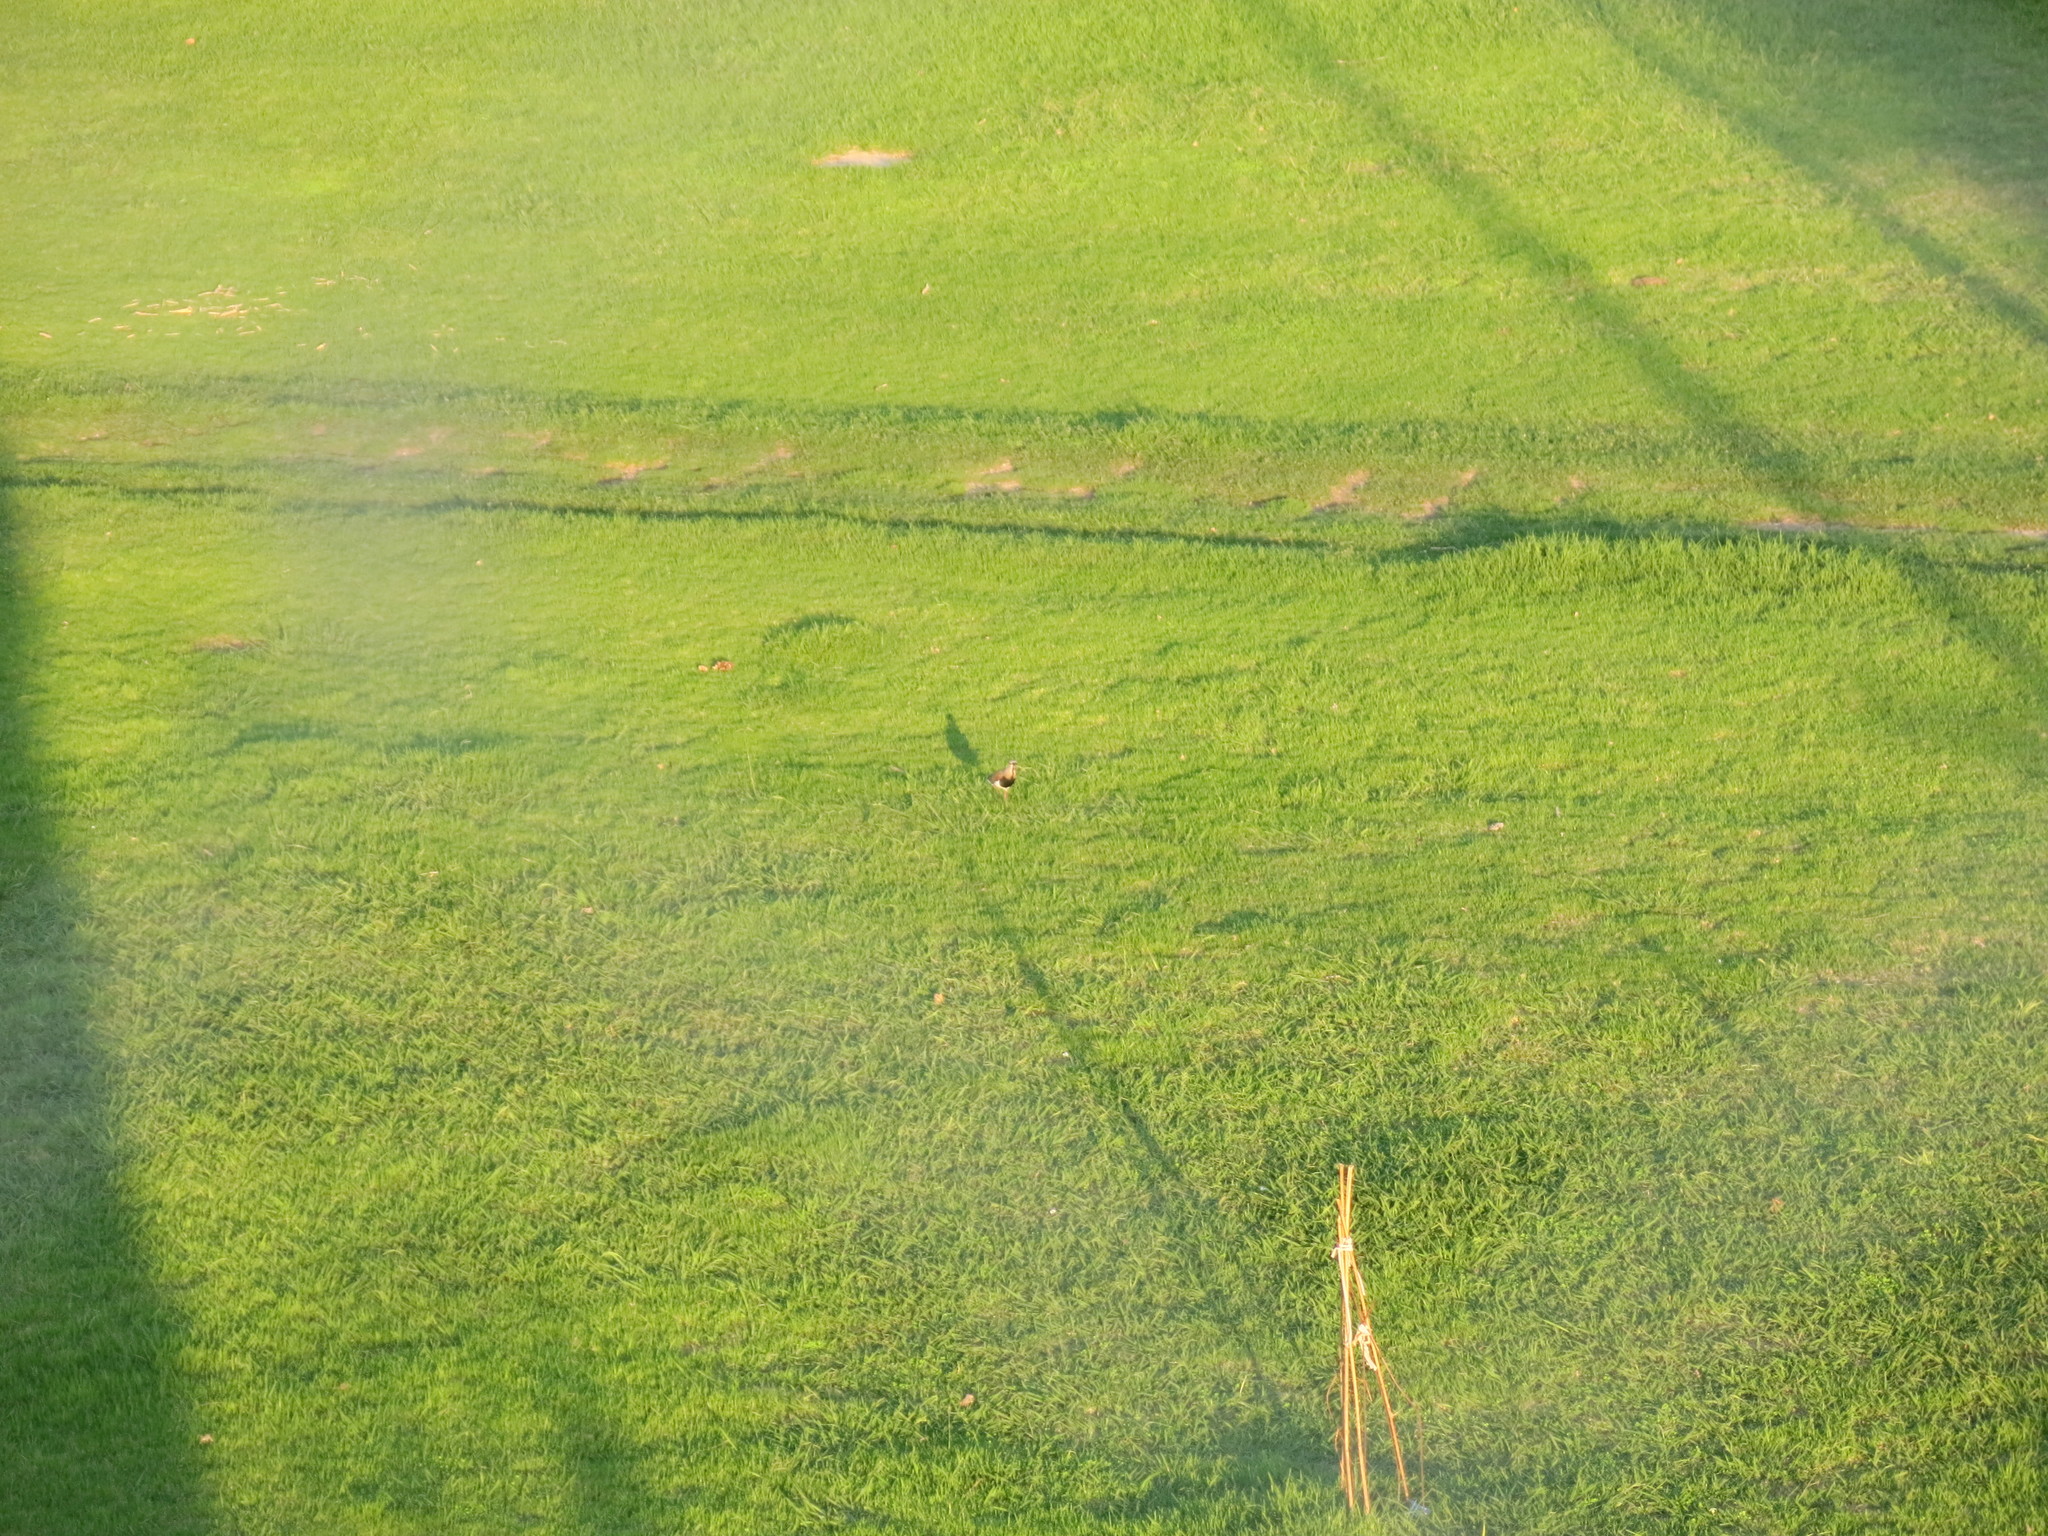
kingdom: Animalia
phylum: Chordata
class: Aves
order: Charadriiformes
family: Charadriidae
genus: Vanellus
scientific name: Vanellus chilensis
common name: Southern lapwing
